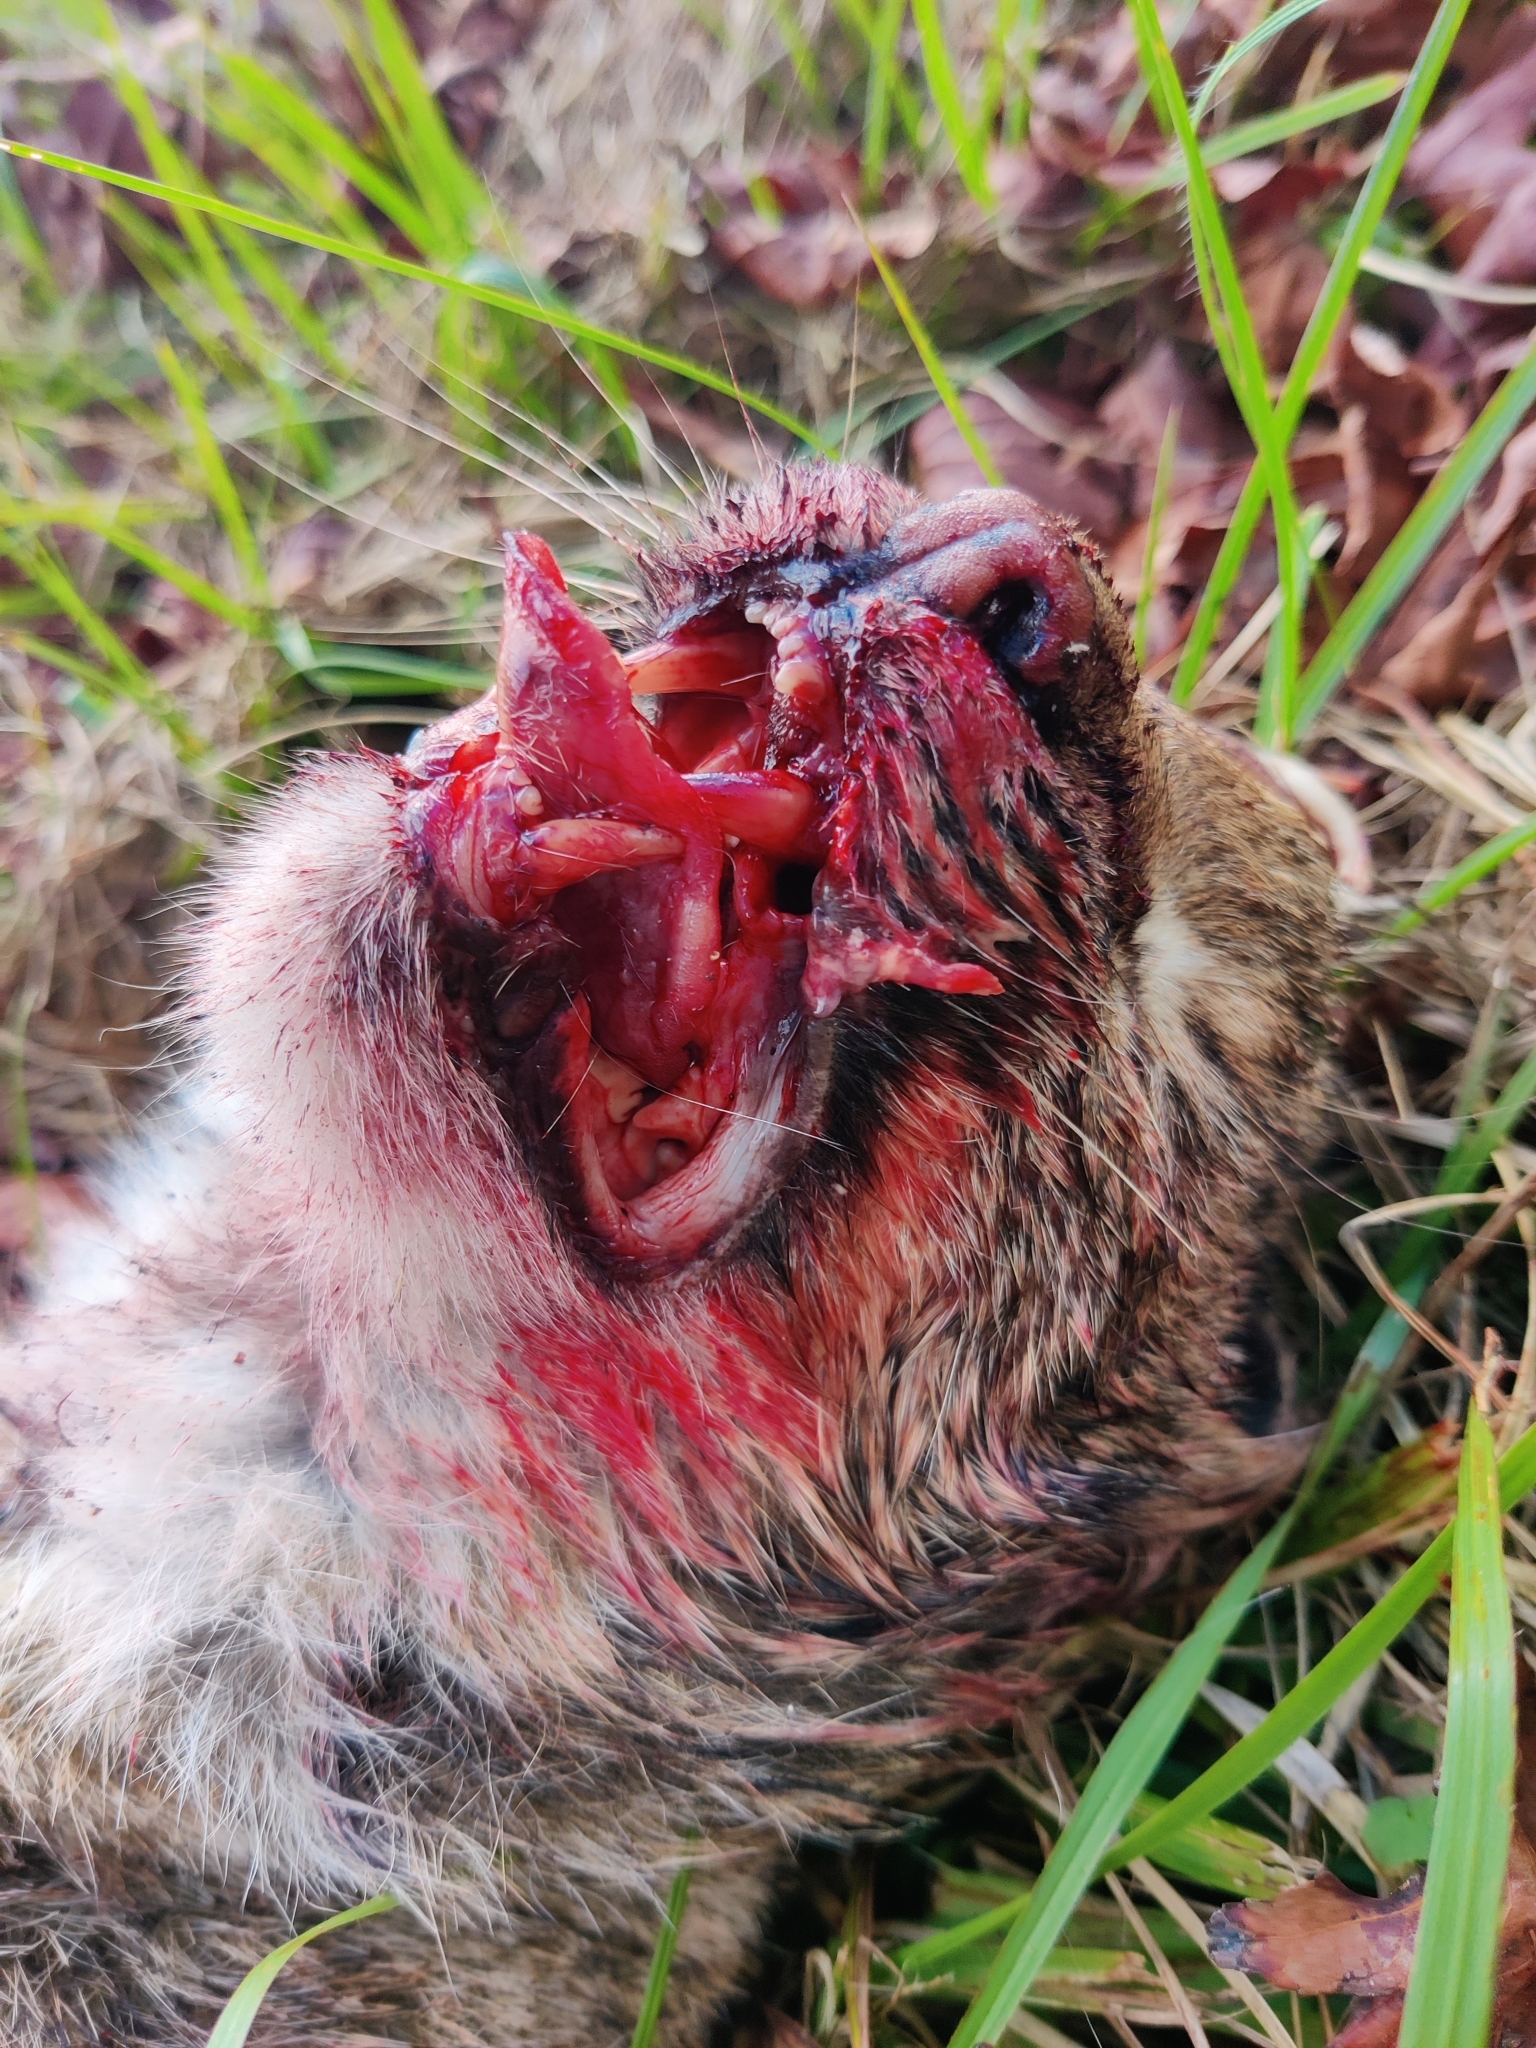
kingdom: Animalia
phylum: Chordata
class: Mammalia
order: Carnivora
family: Felidae
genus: Lynx
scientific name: Lynx rufus
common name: Bobcat
